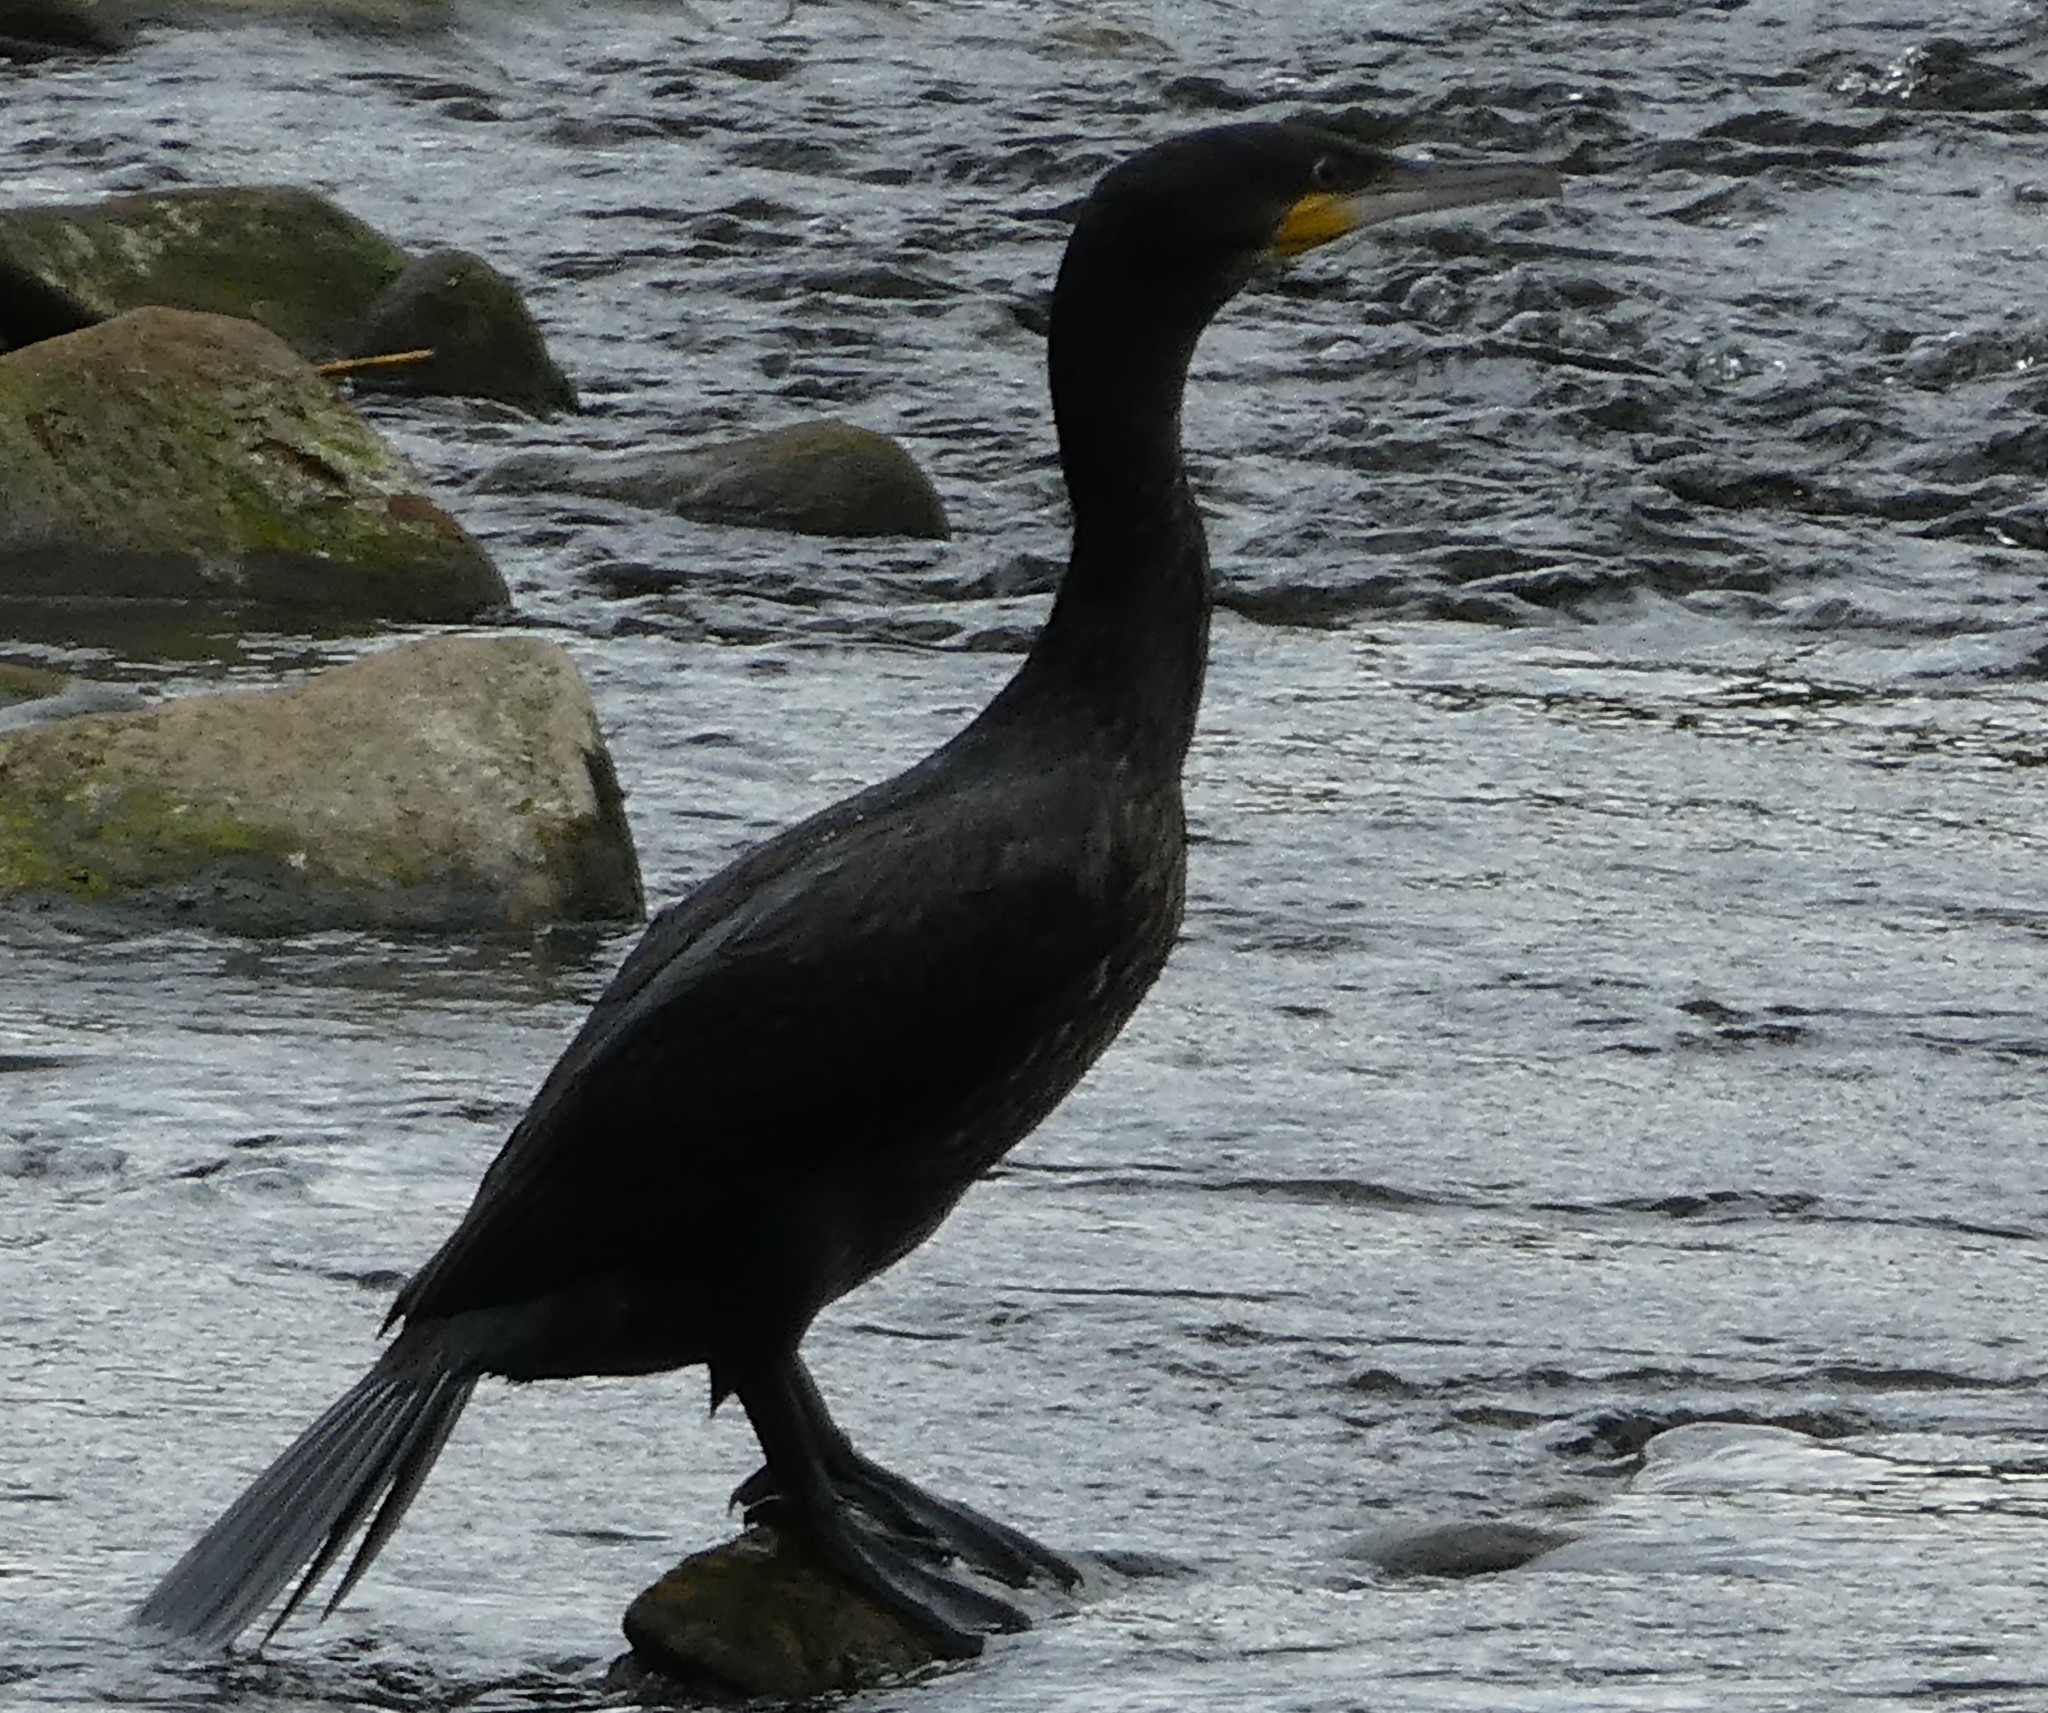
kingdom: Animalia
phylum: Chordata
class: Aves
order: Suliformes
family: Phalacrocoracidae
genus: Phalacrocorax
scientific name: Phalacrocorax carbo
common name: Great cormorant
